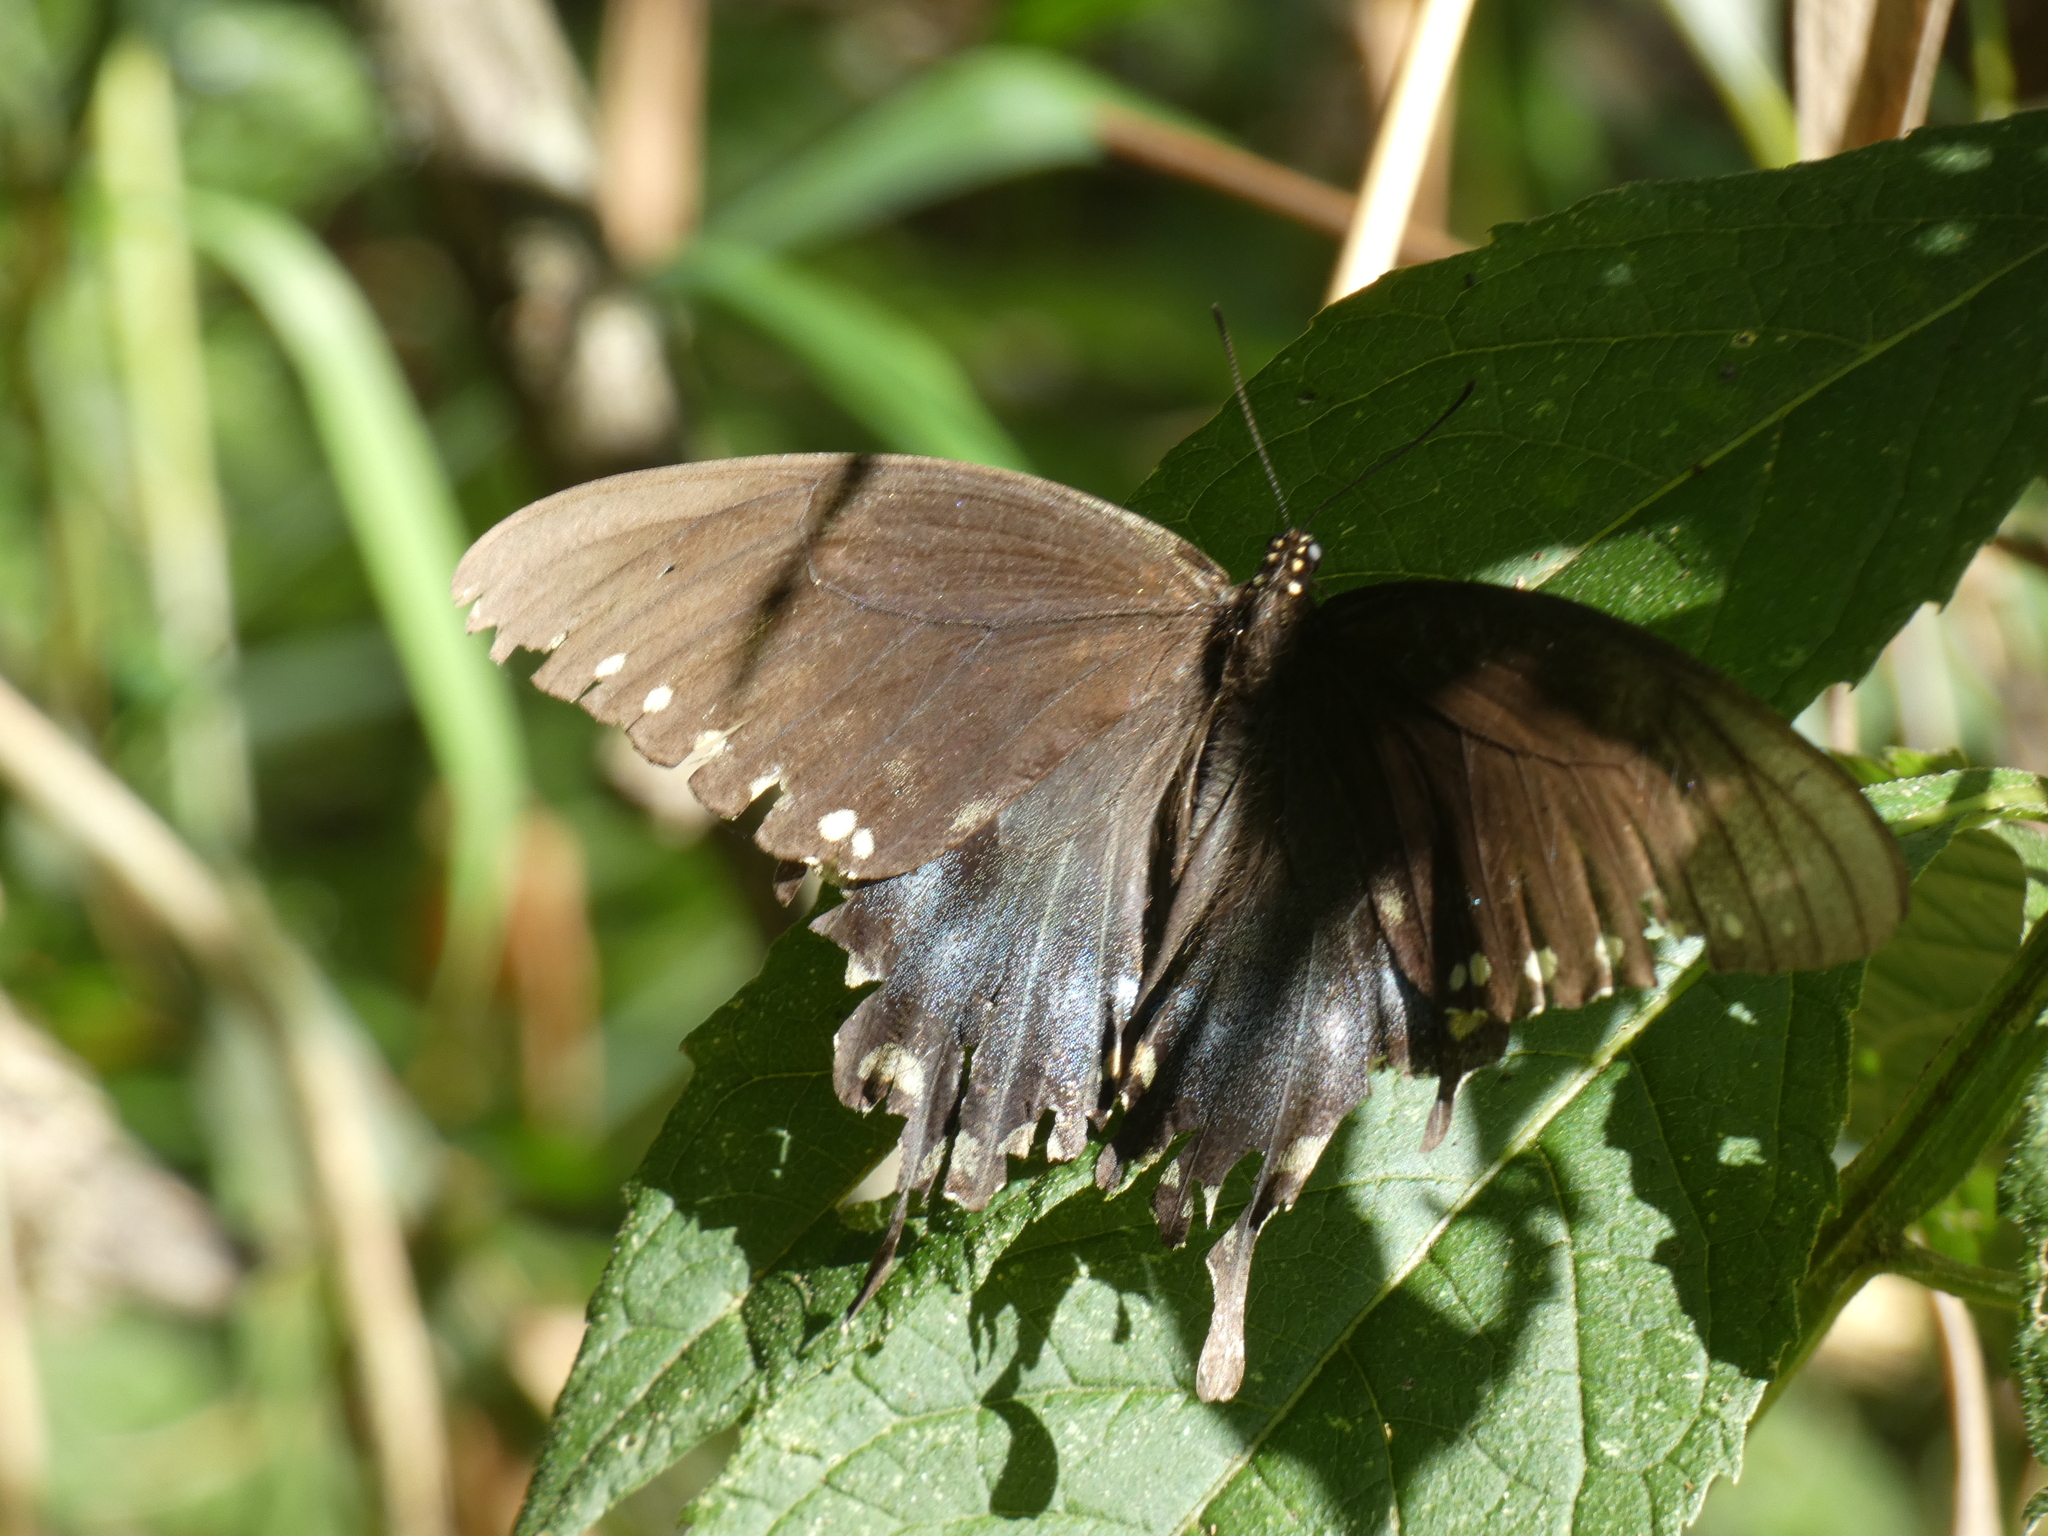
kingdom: Animalia
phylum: Arthropoda
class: Insecta
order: Lepidoptera
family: Papilionidae
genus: Papilio
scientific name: Papilio troilus
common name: Spicebush swallowtail
